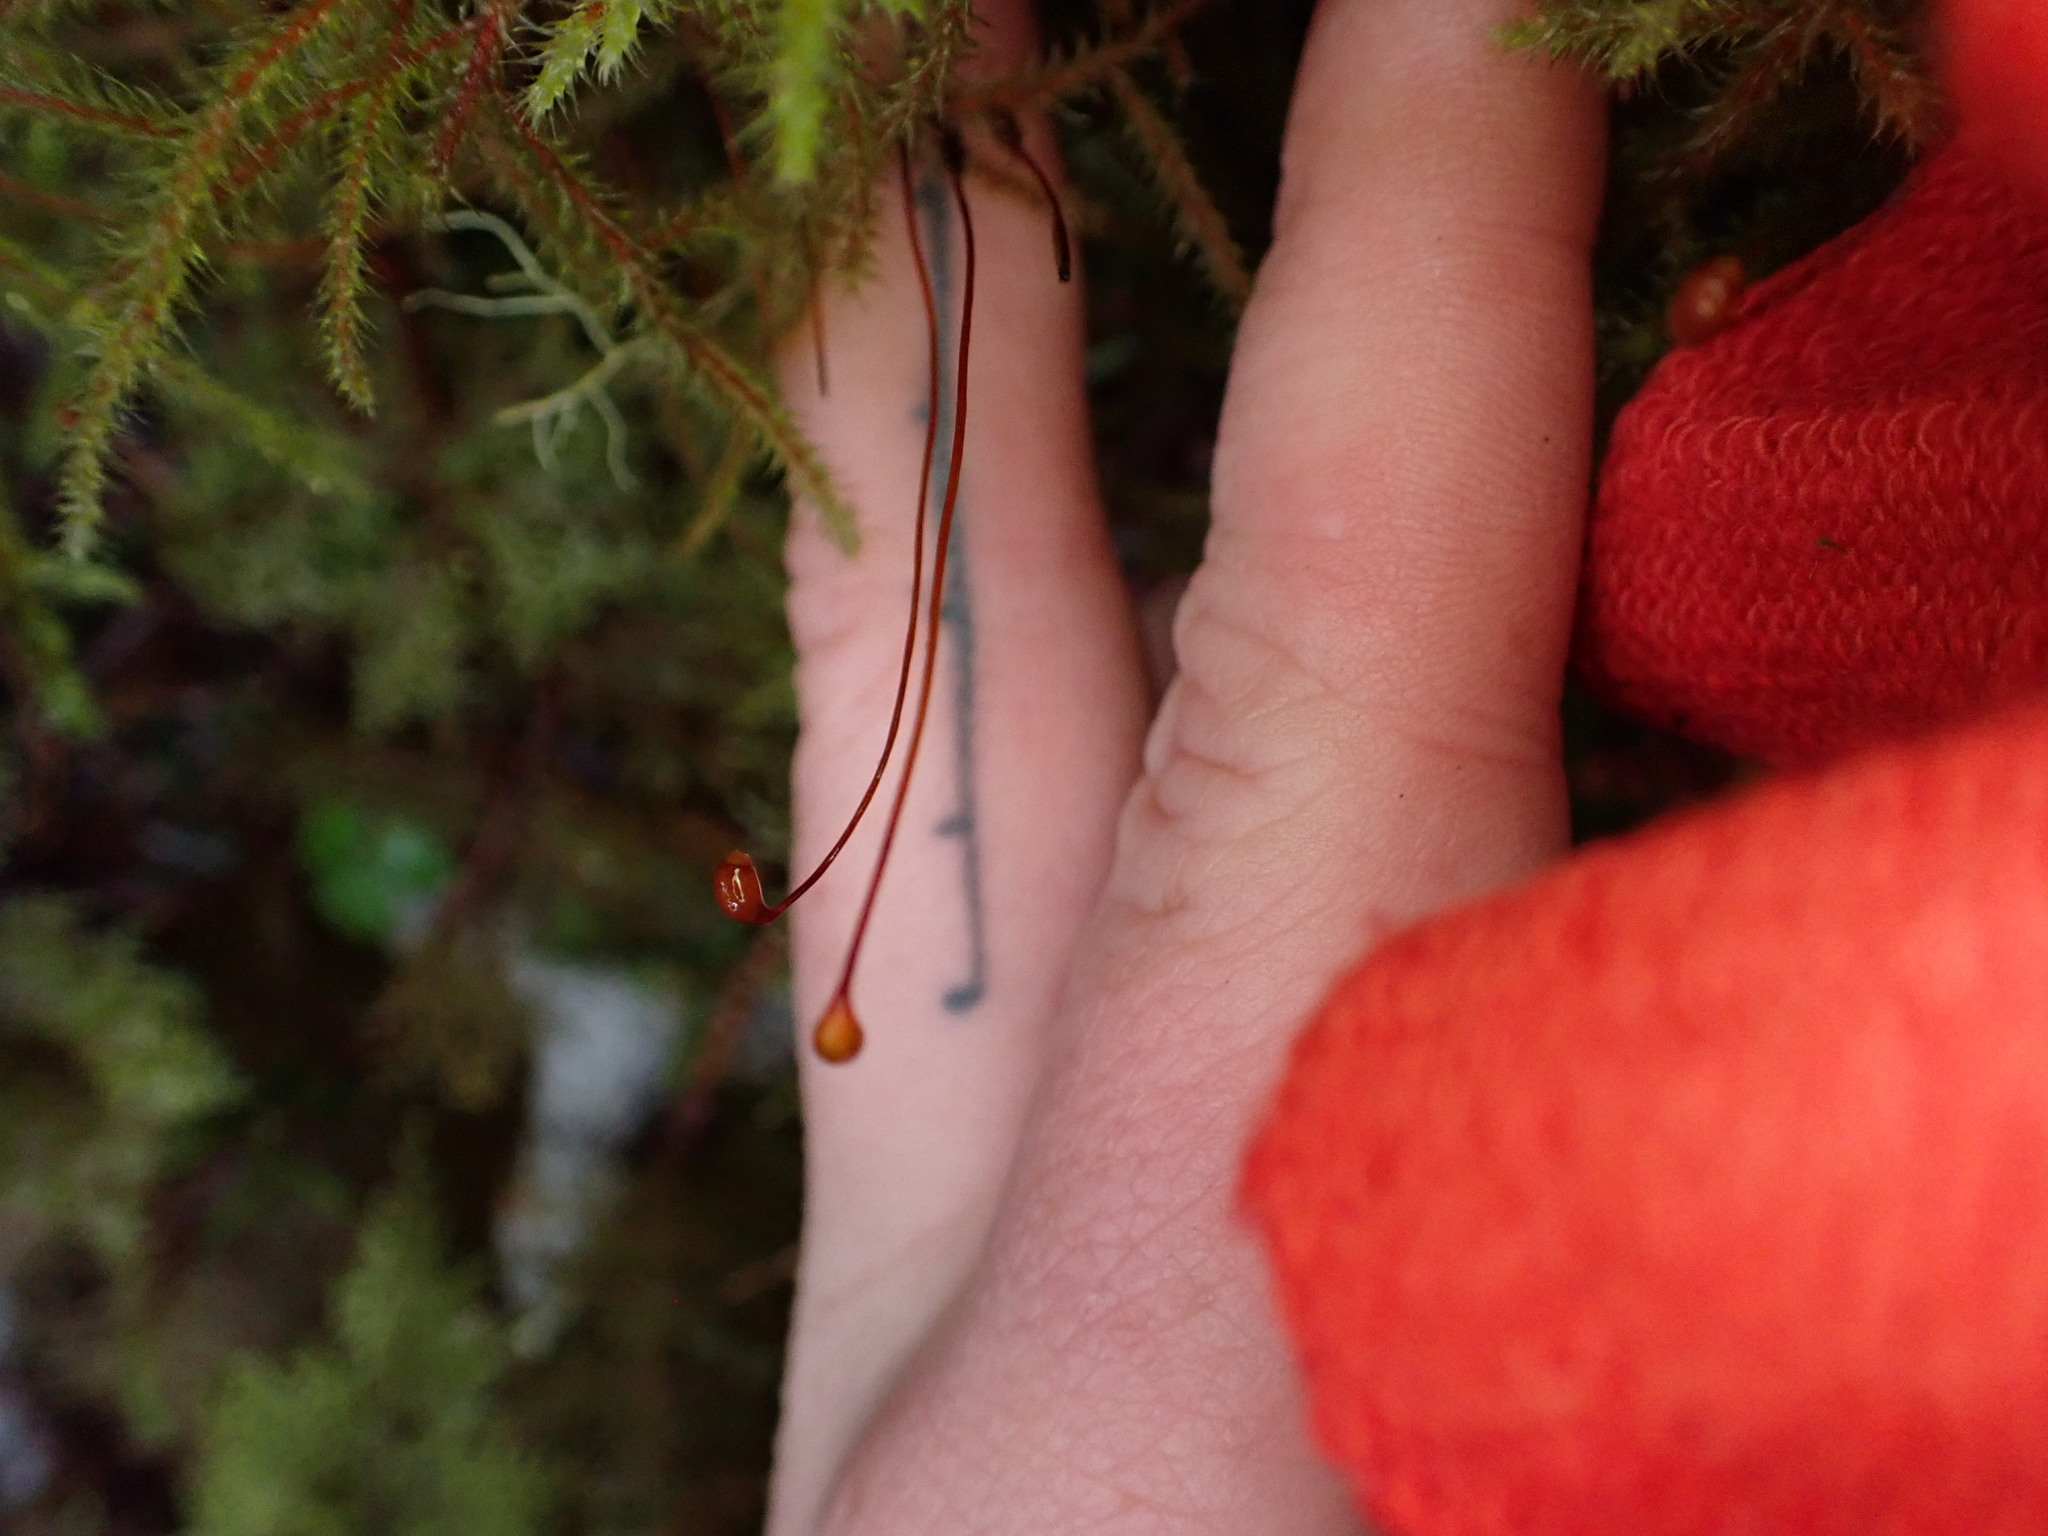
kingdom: Plantae
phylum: Bryophyta
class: Bryopsida
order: Hypnales
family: Hylocomiaceae
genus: Rhytidiadelphus
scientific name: Rhytidiadelphus loreus
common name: Lanky moss
